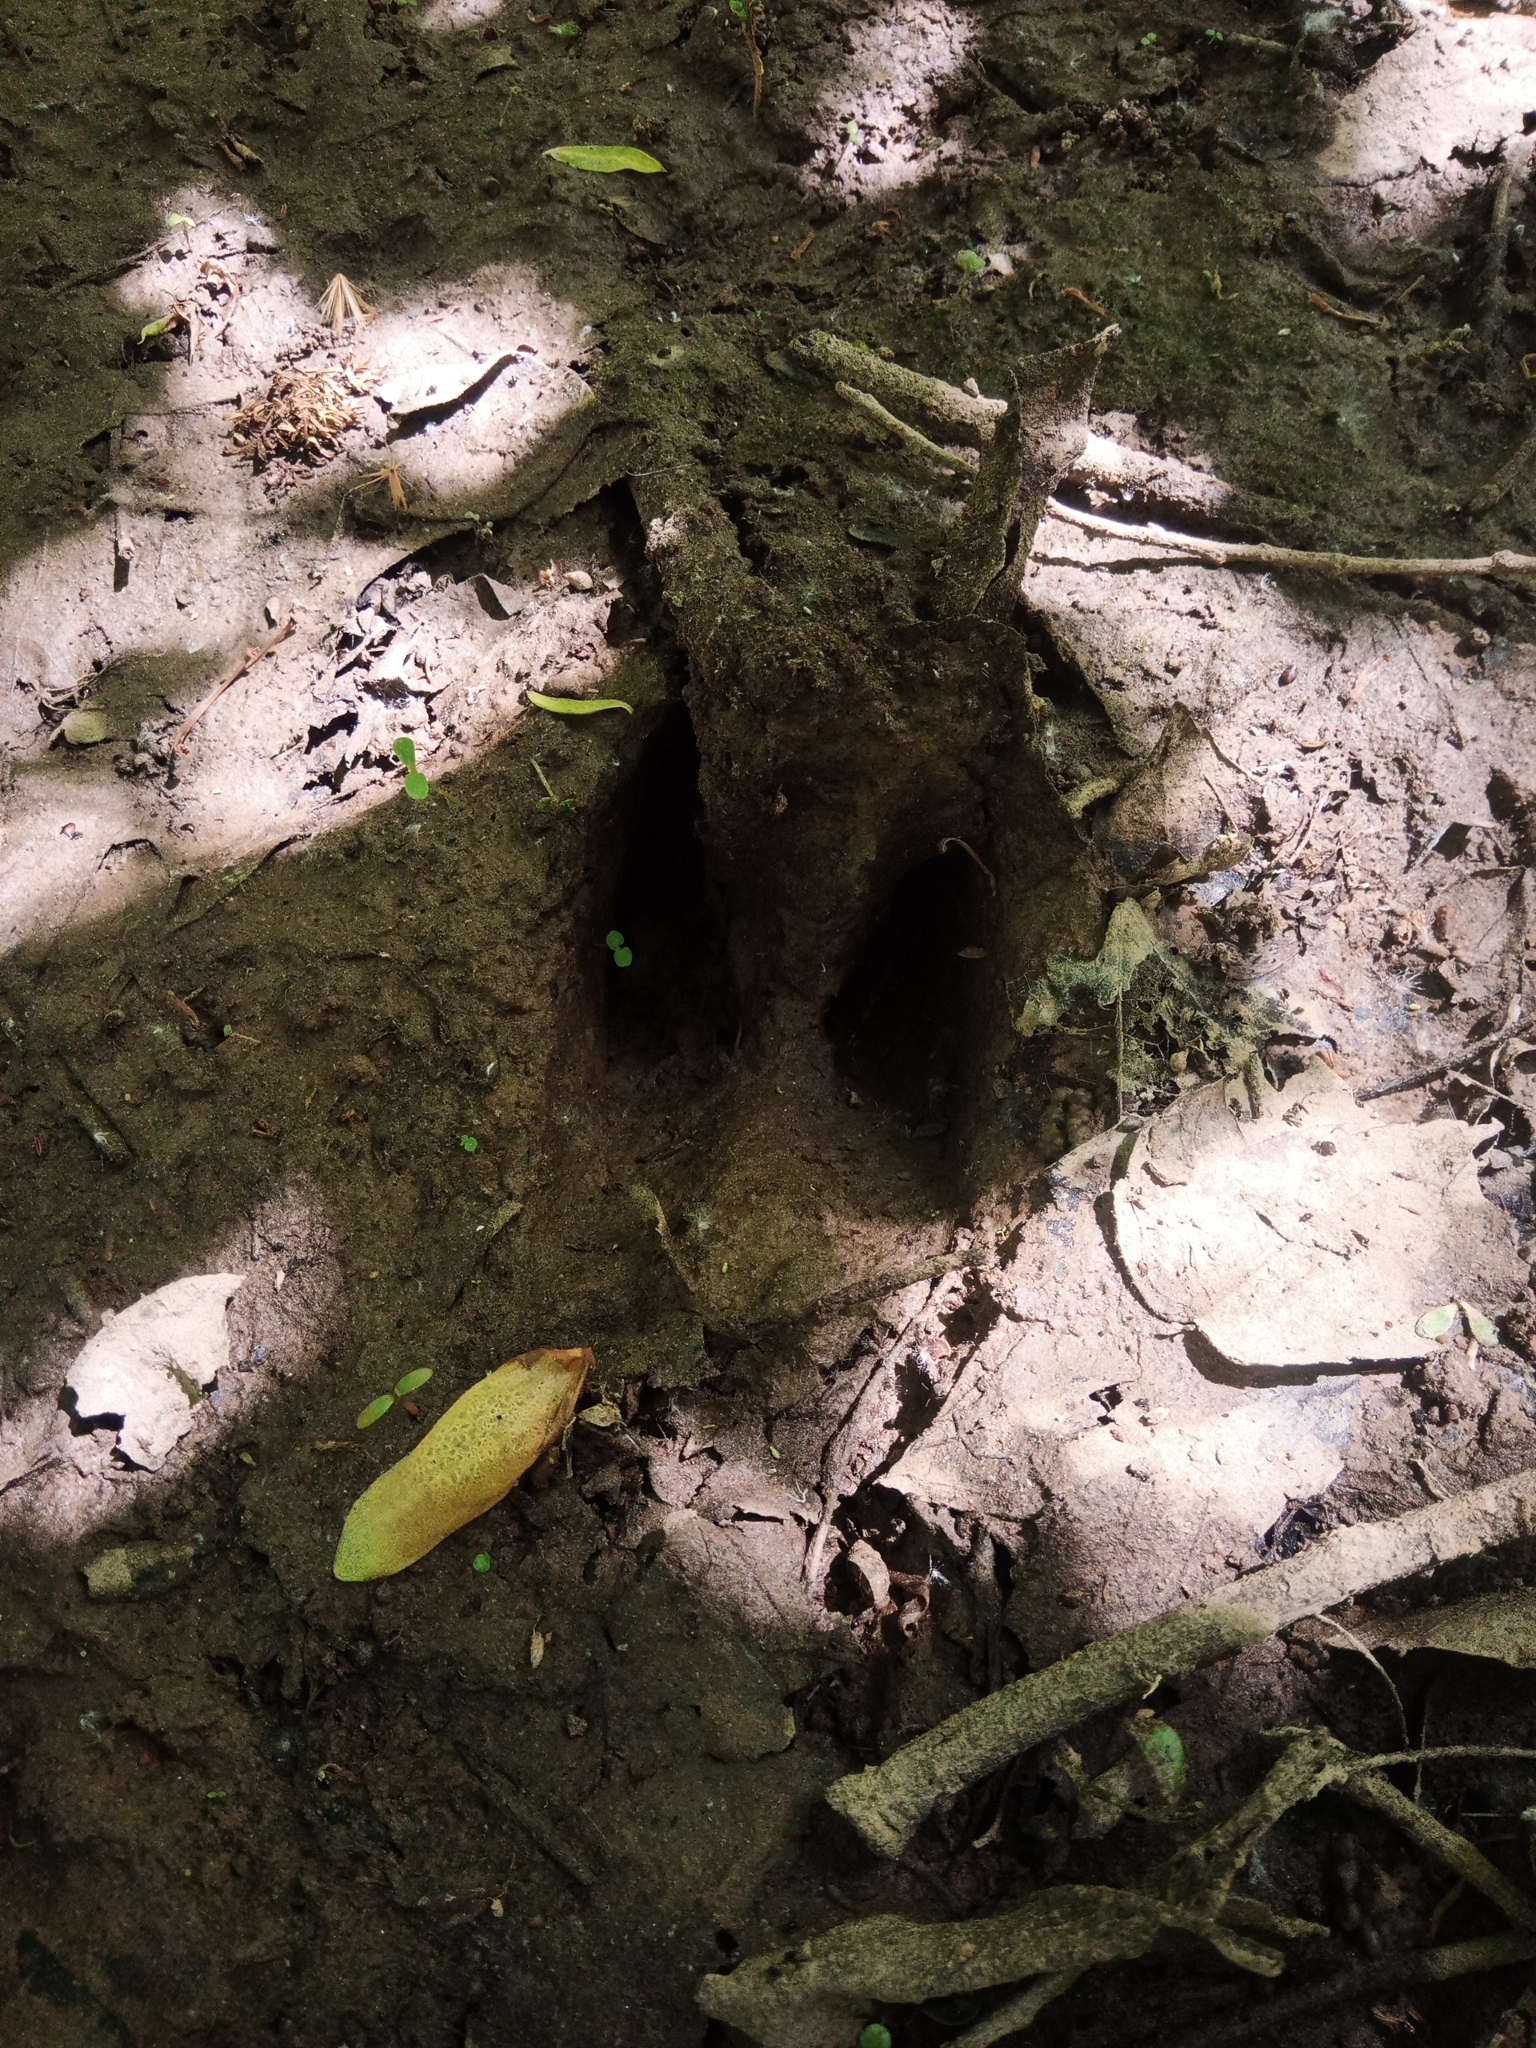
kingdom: Animalia
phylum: Chordata
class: Mammalia
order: Artiodactyla
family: Cervidae
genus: Odocoileus
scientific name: Odocoileus virginianus
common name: White-tailed deer
